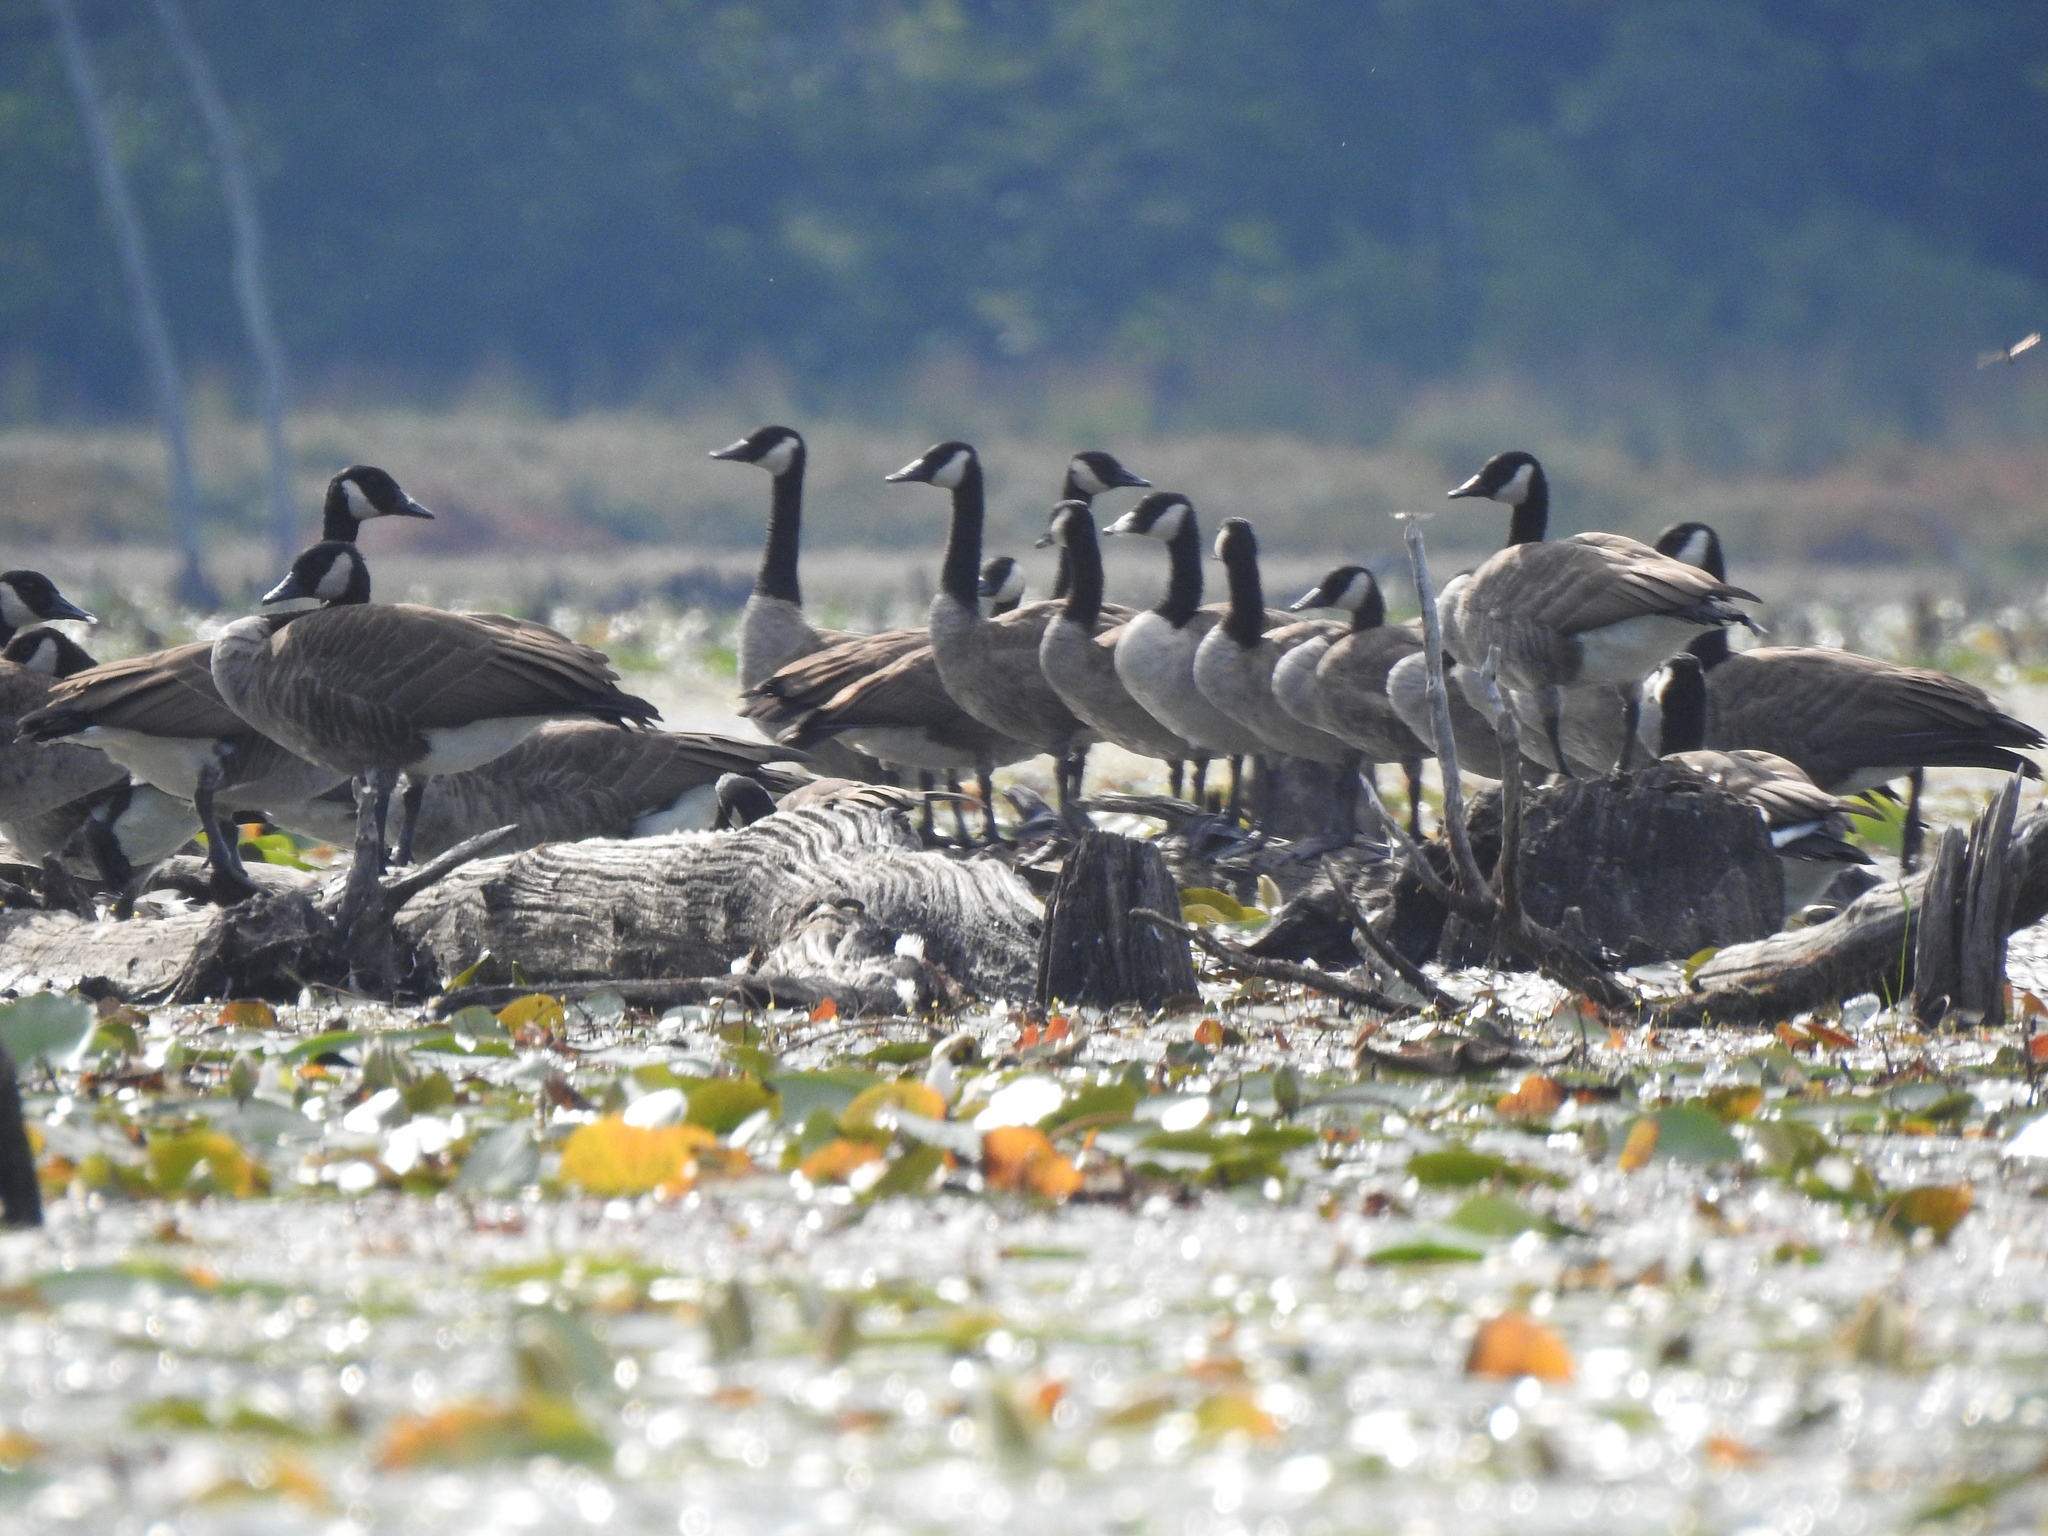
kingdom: Animalia
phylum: Chordata
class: Aves
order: Anseriformes
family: Anatidae
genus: Branta
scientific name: Branta canadensis
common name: Canada goose
